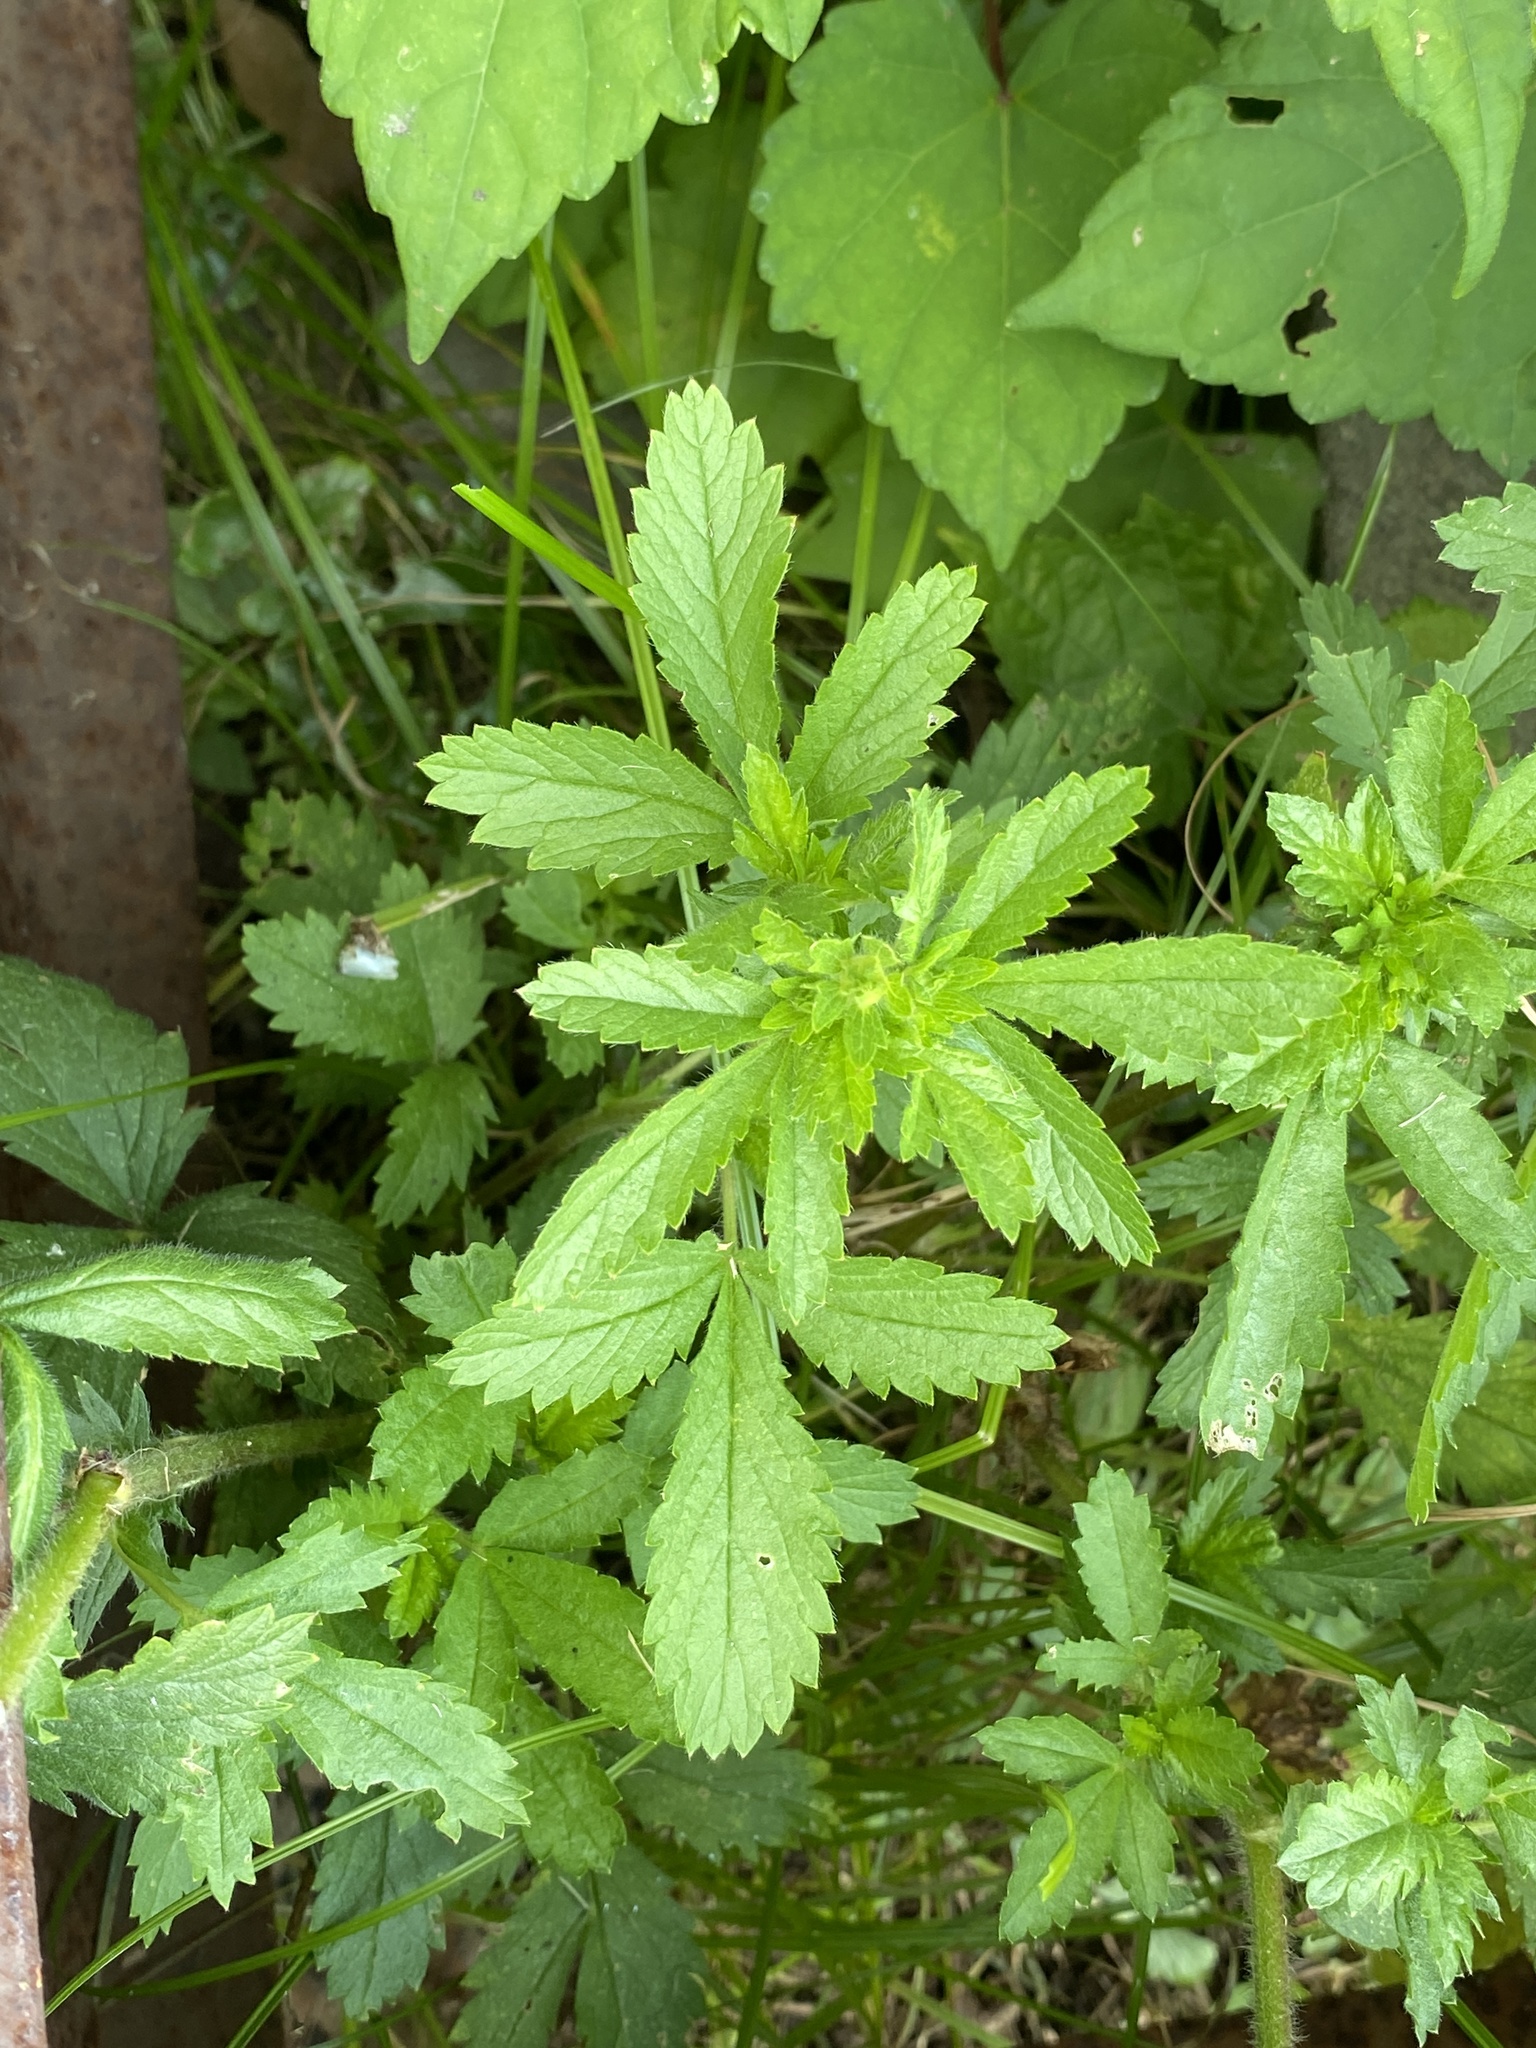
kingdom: Plantae
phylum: Tracheophyta
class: Magnoliopsida
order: Rosales
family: Rosaceae
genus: Potentilla
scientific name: Potentilla norvegica
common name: Ternate-leaved cinquefoil
